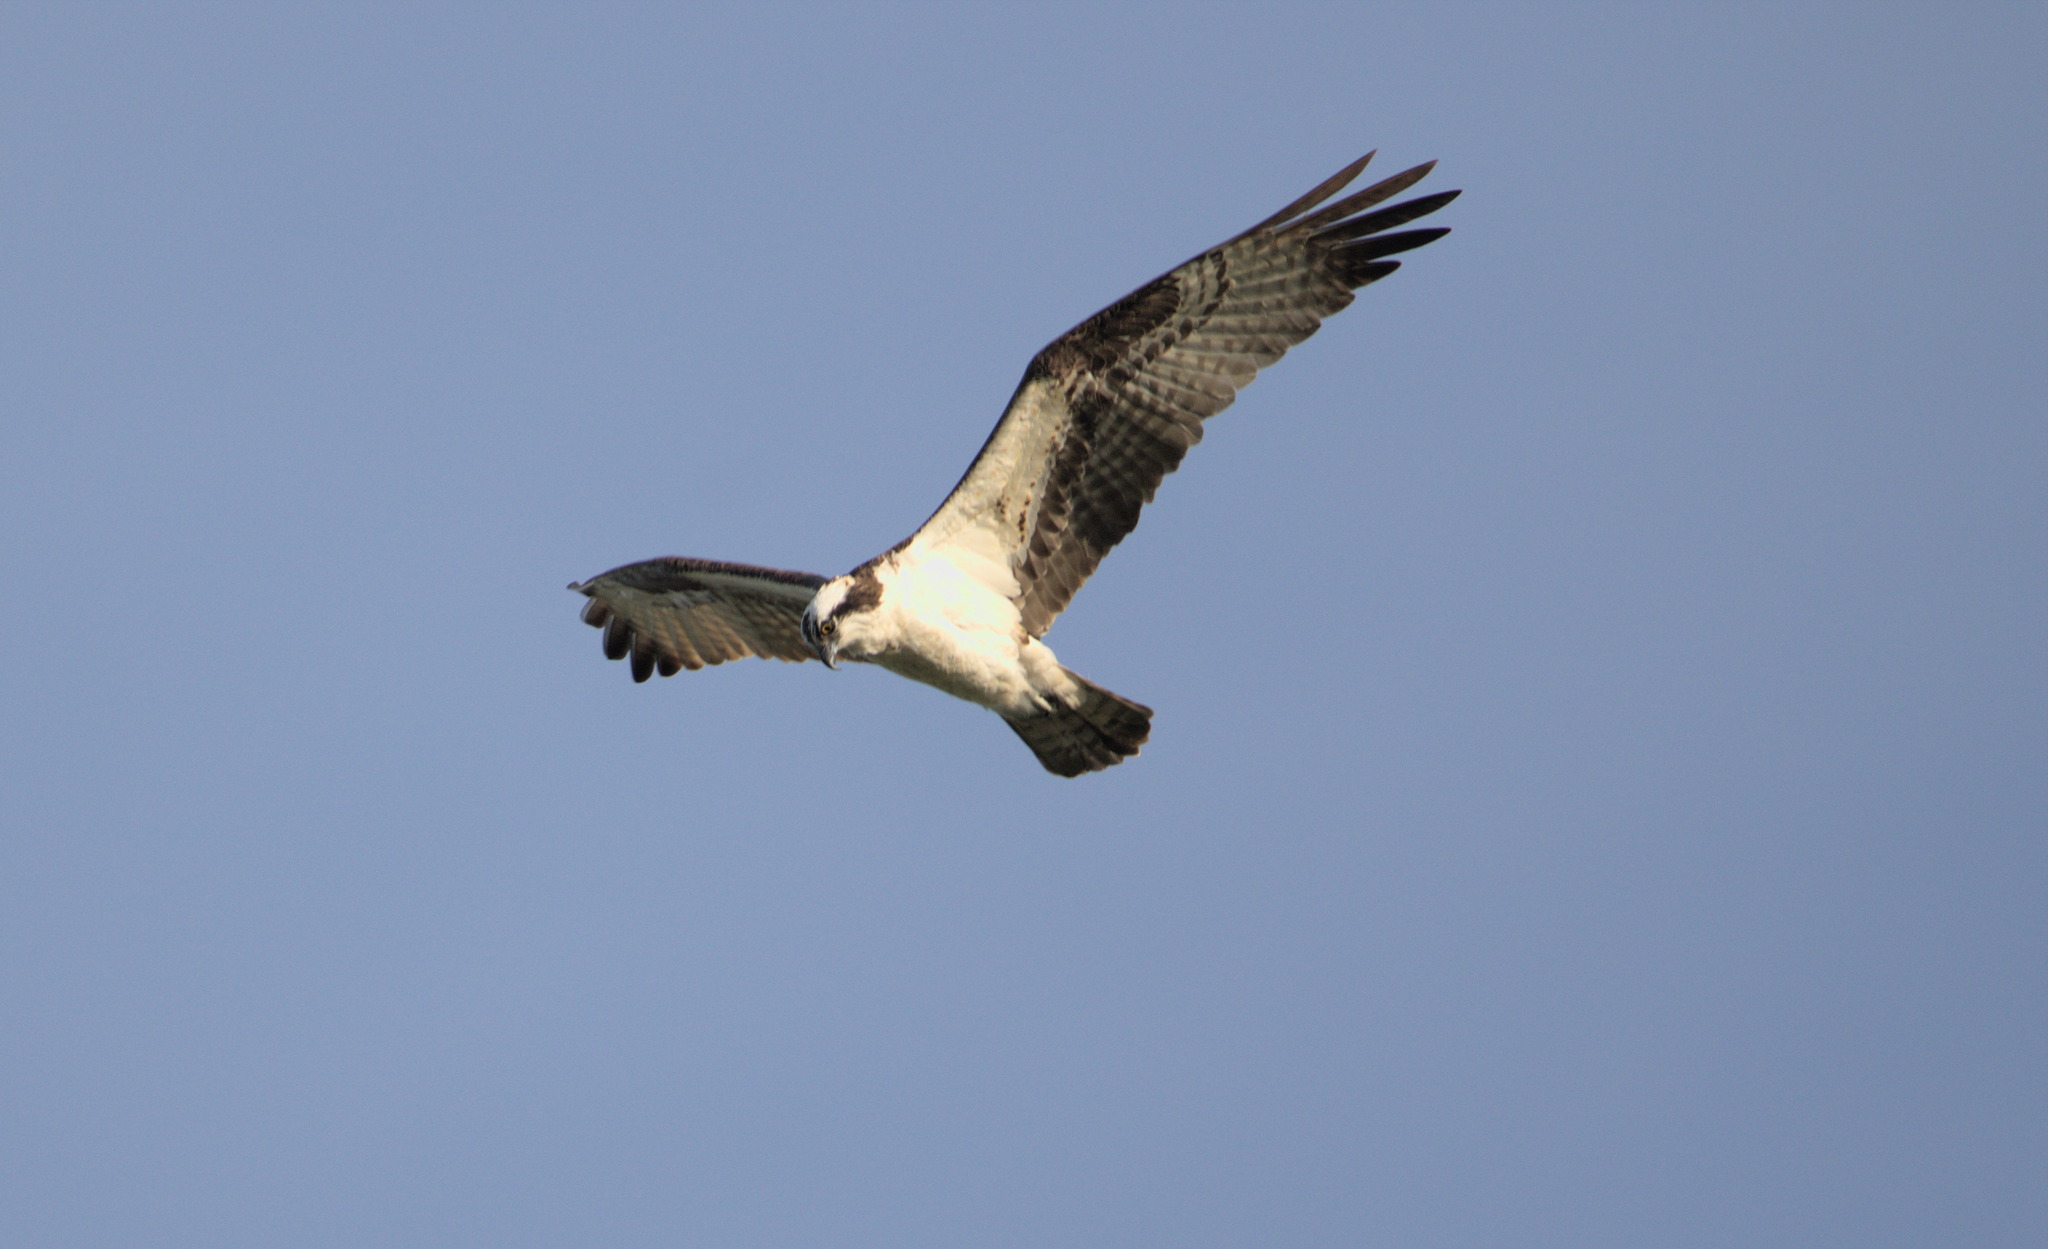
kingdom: Animalia
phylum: Chordata
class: Aves
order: Accipitriformes
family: Pandionidae
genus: Pandion
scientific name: Pandion haliaetus
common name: Osprey
